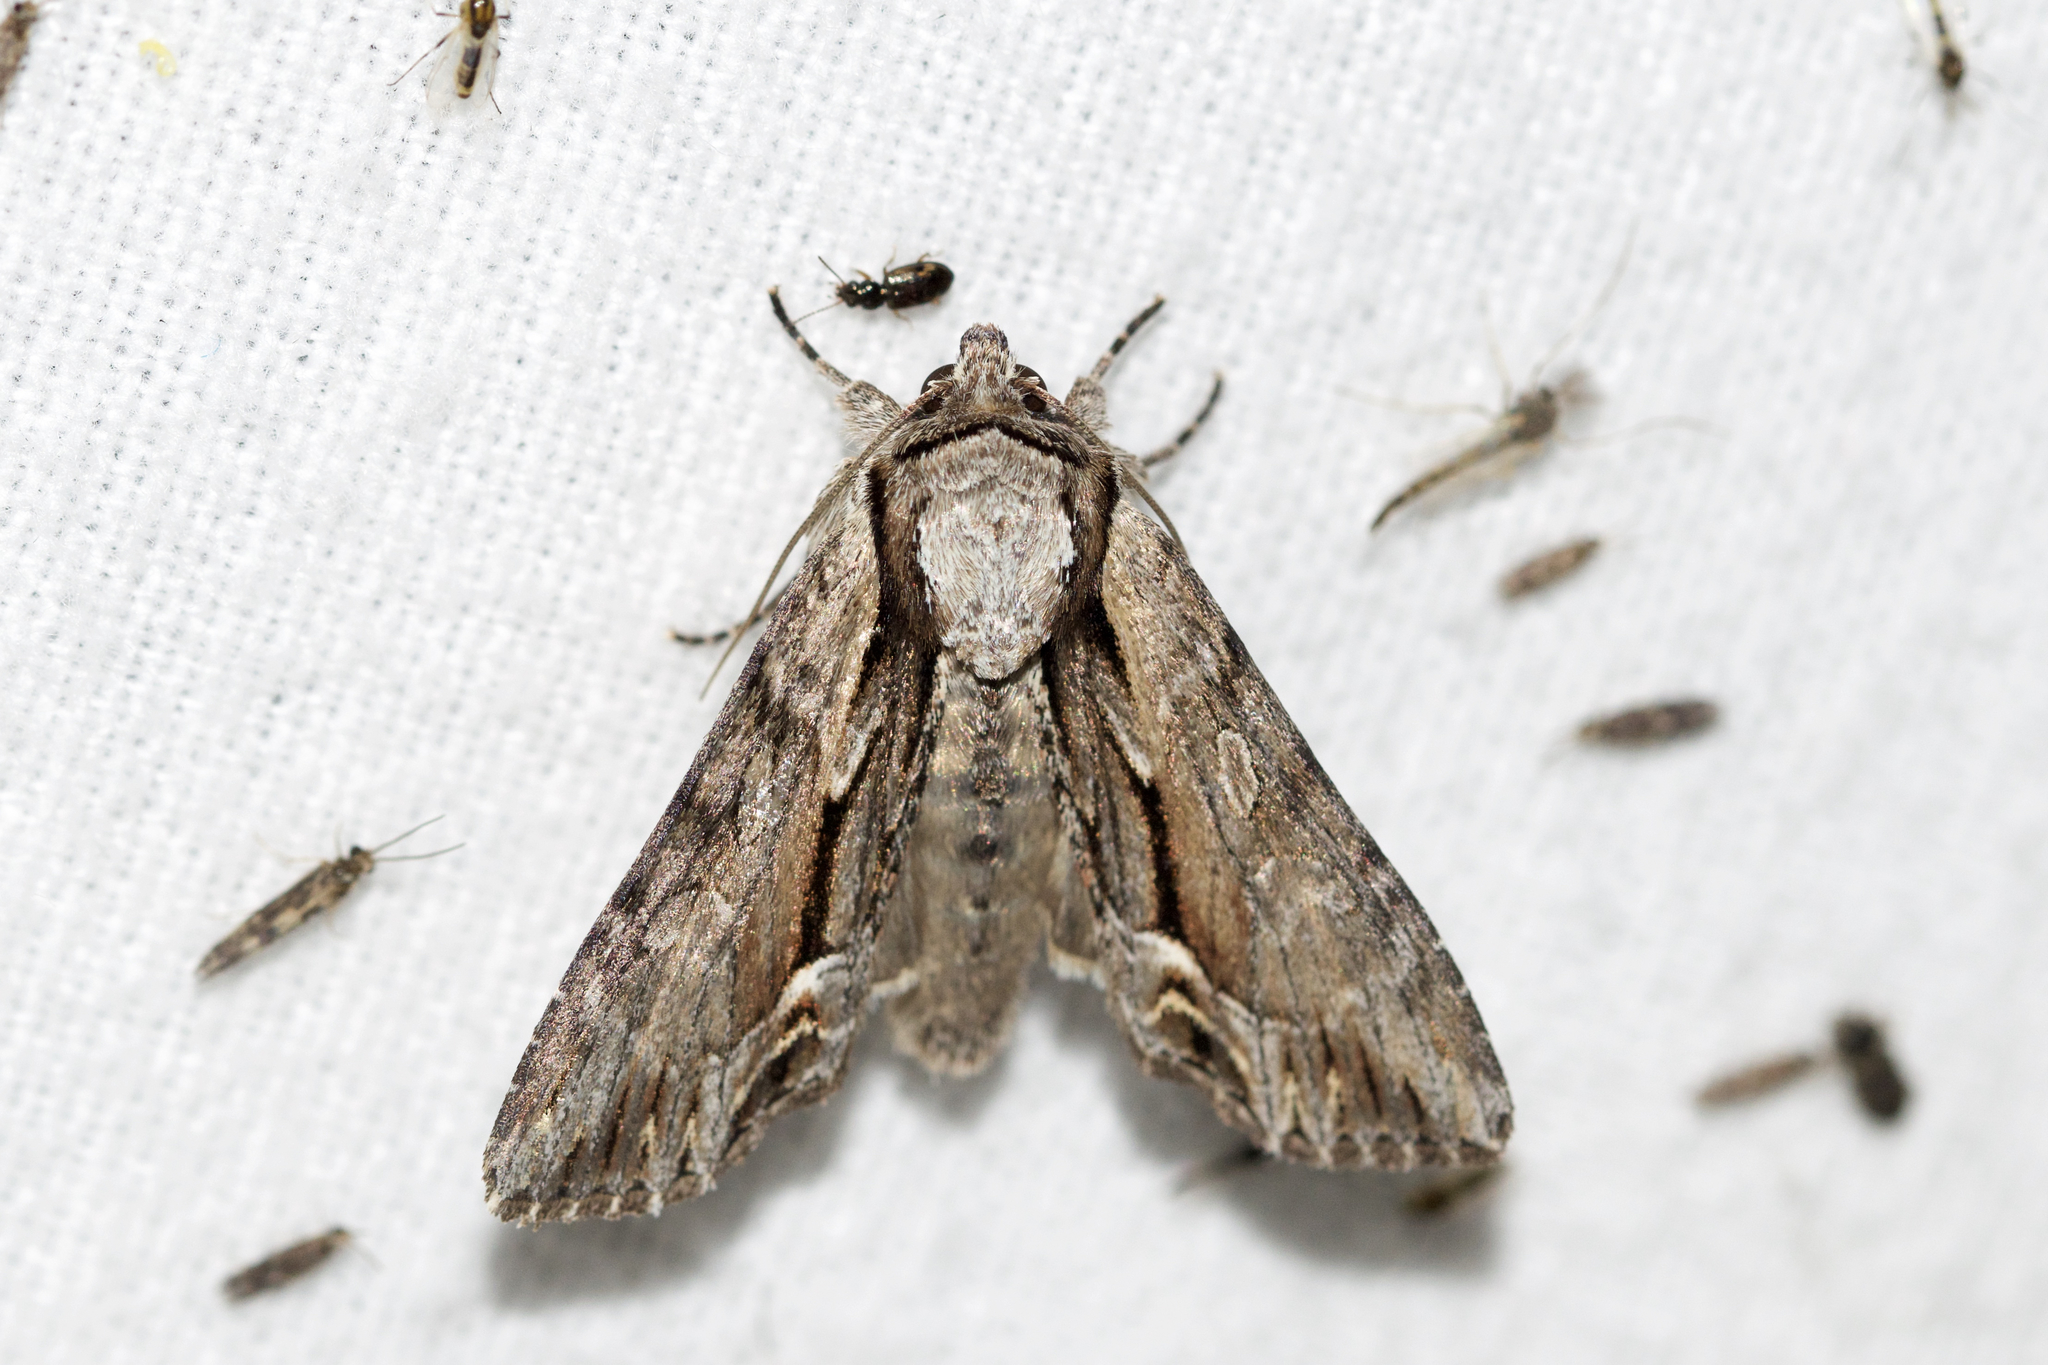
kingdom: Animalia
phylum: Arthropoda
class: Insecta
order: Lepidoptera
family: Noctuidae
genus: Hyppa
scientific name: Hyppa xylinoides
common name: Common hyppa moth
